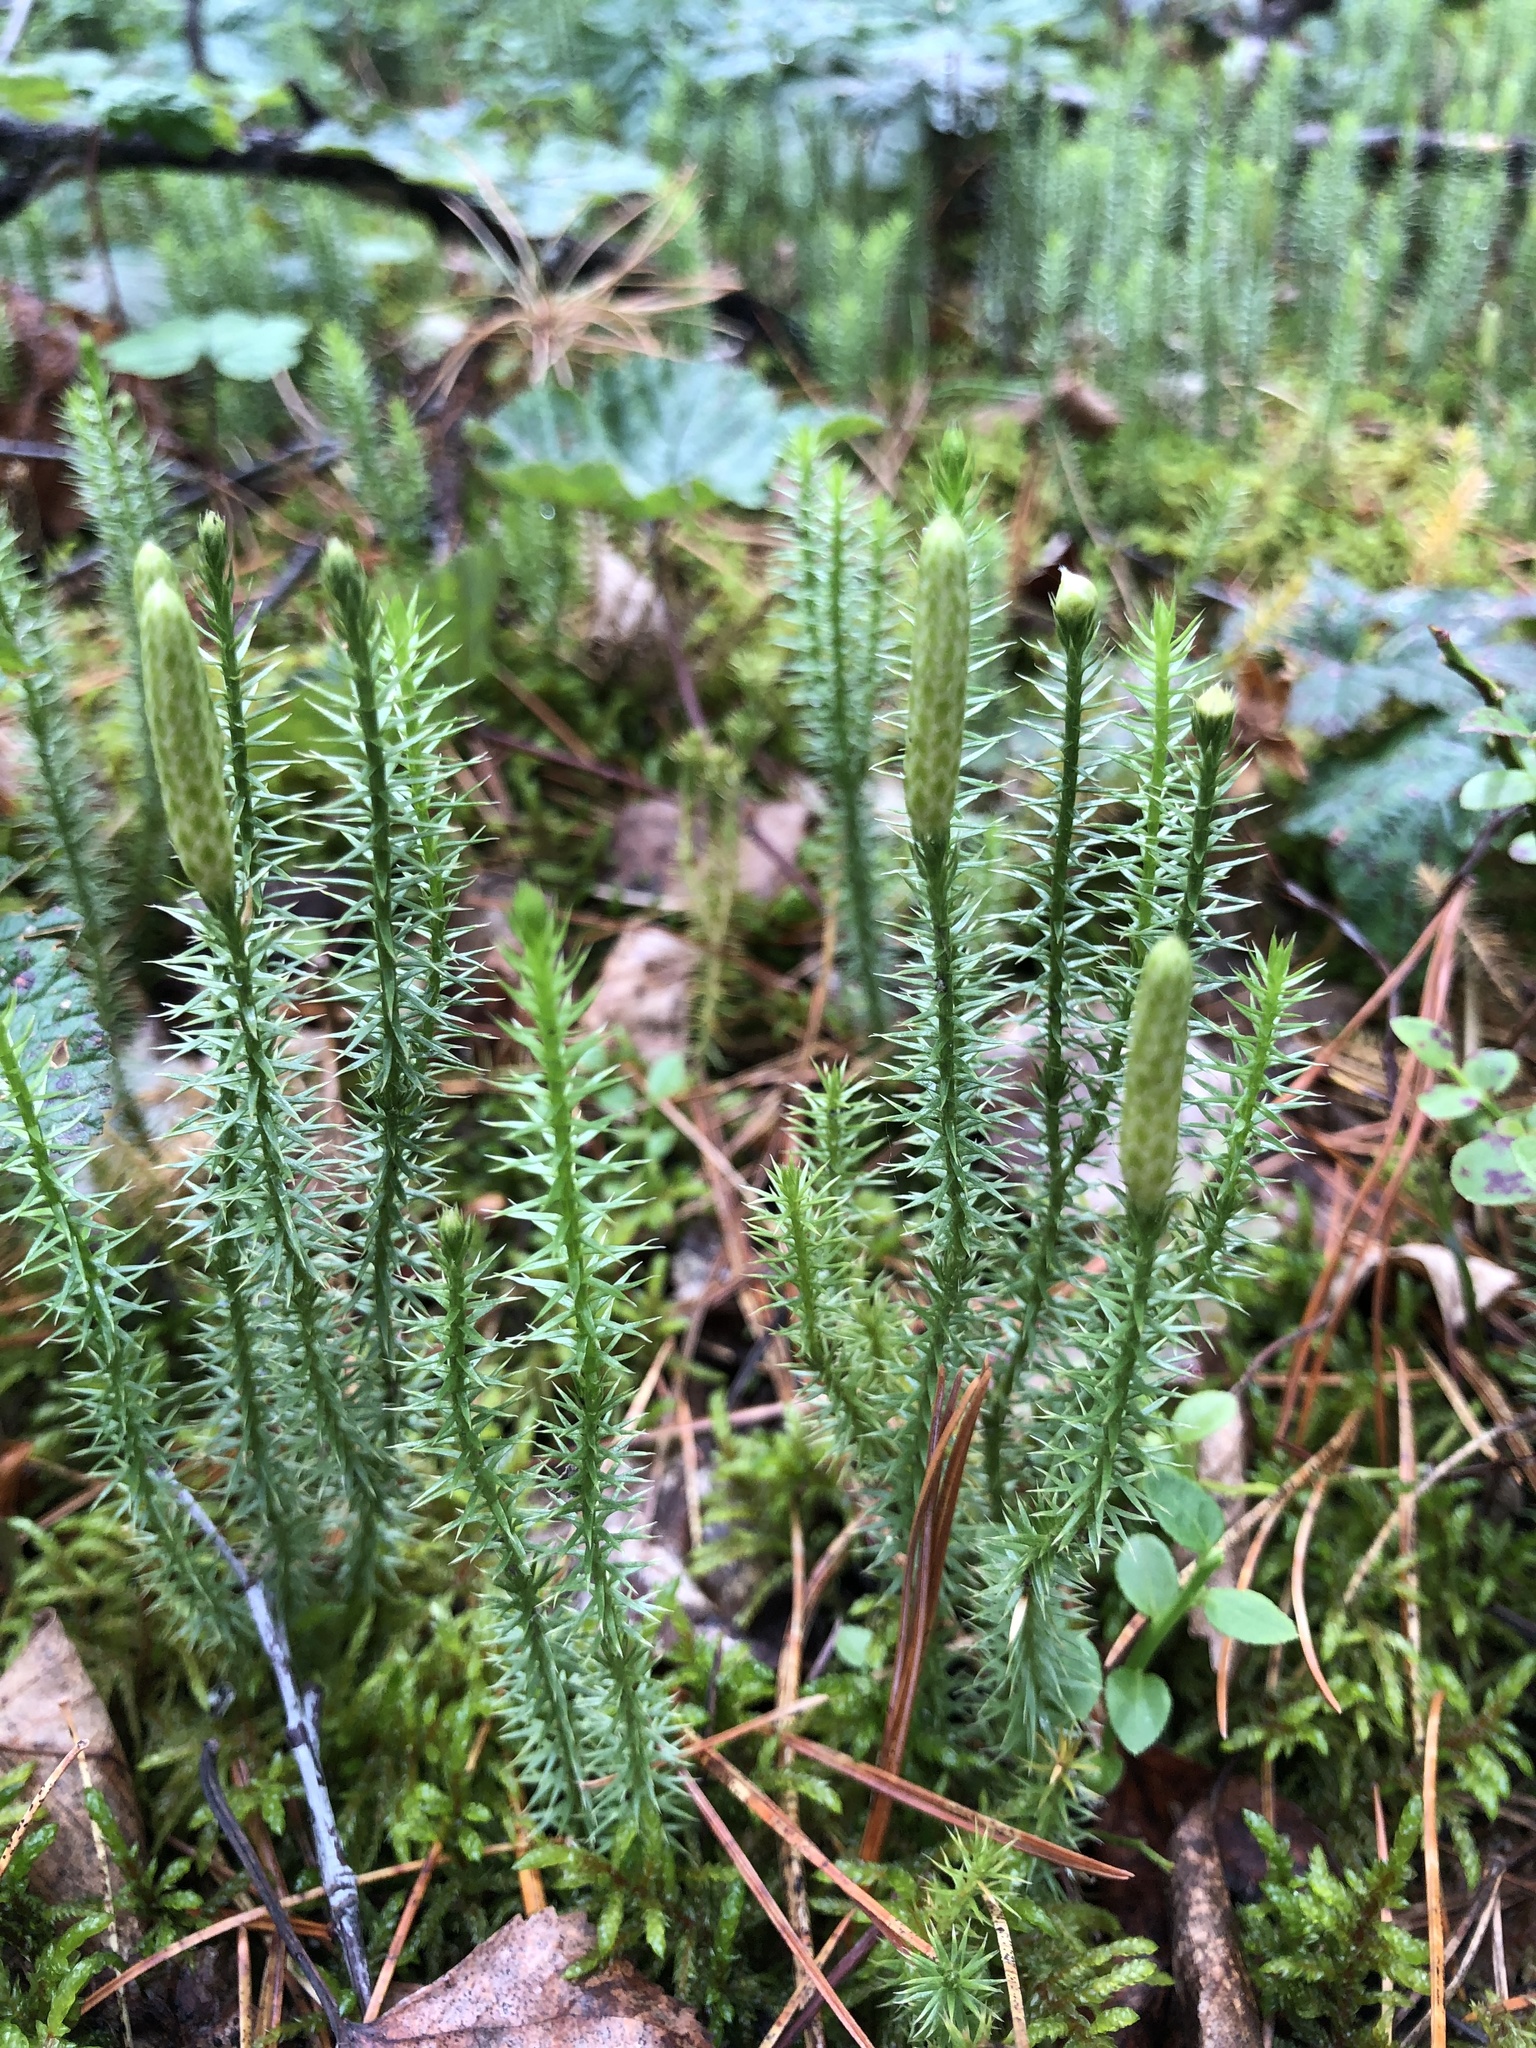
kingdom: Plantae
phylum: Tracheophyta
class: Lycopodiopsida
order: Lycopodiales
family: Lycopodiaceae
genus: Spinulum
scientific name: Spinulum annotinum
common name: Interrupted club-moss
